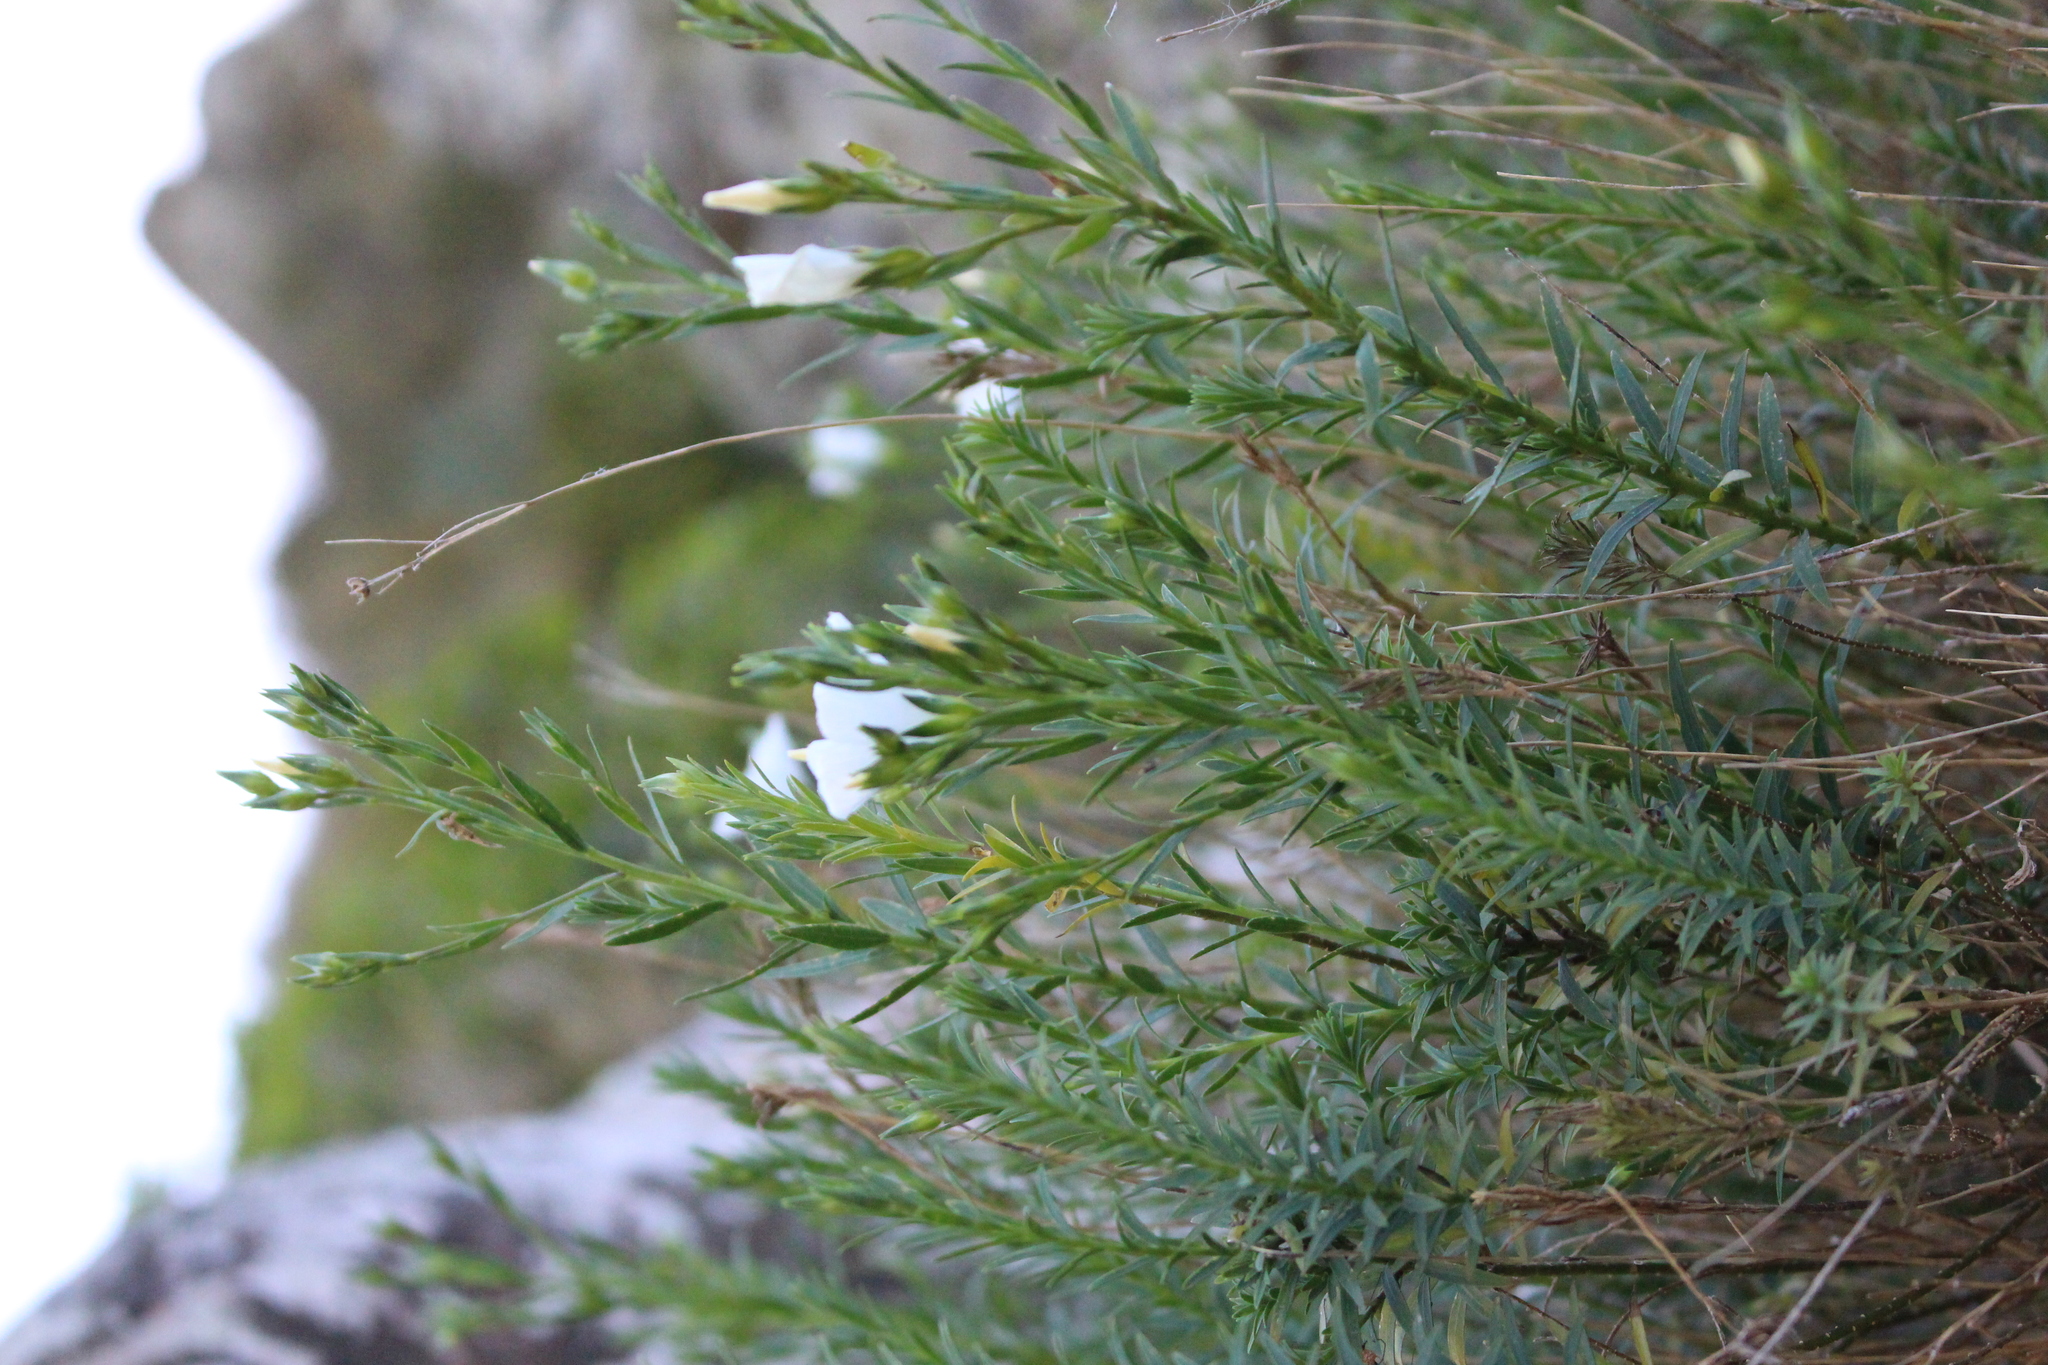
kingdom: Plantae
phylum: Tracheophyta
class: Magnoliopsida
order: Malpighiales
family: Linaceae
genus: Linum
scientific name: Linum monogynum
